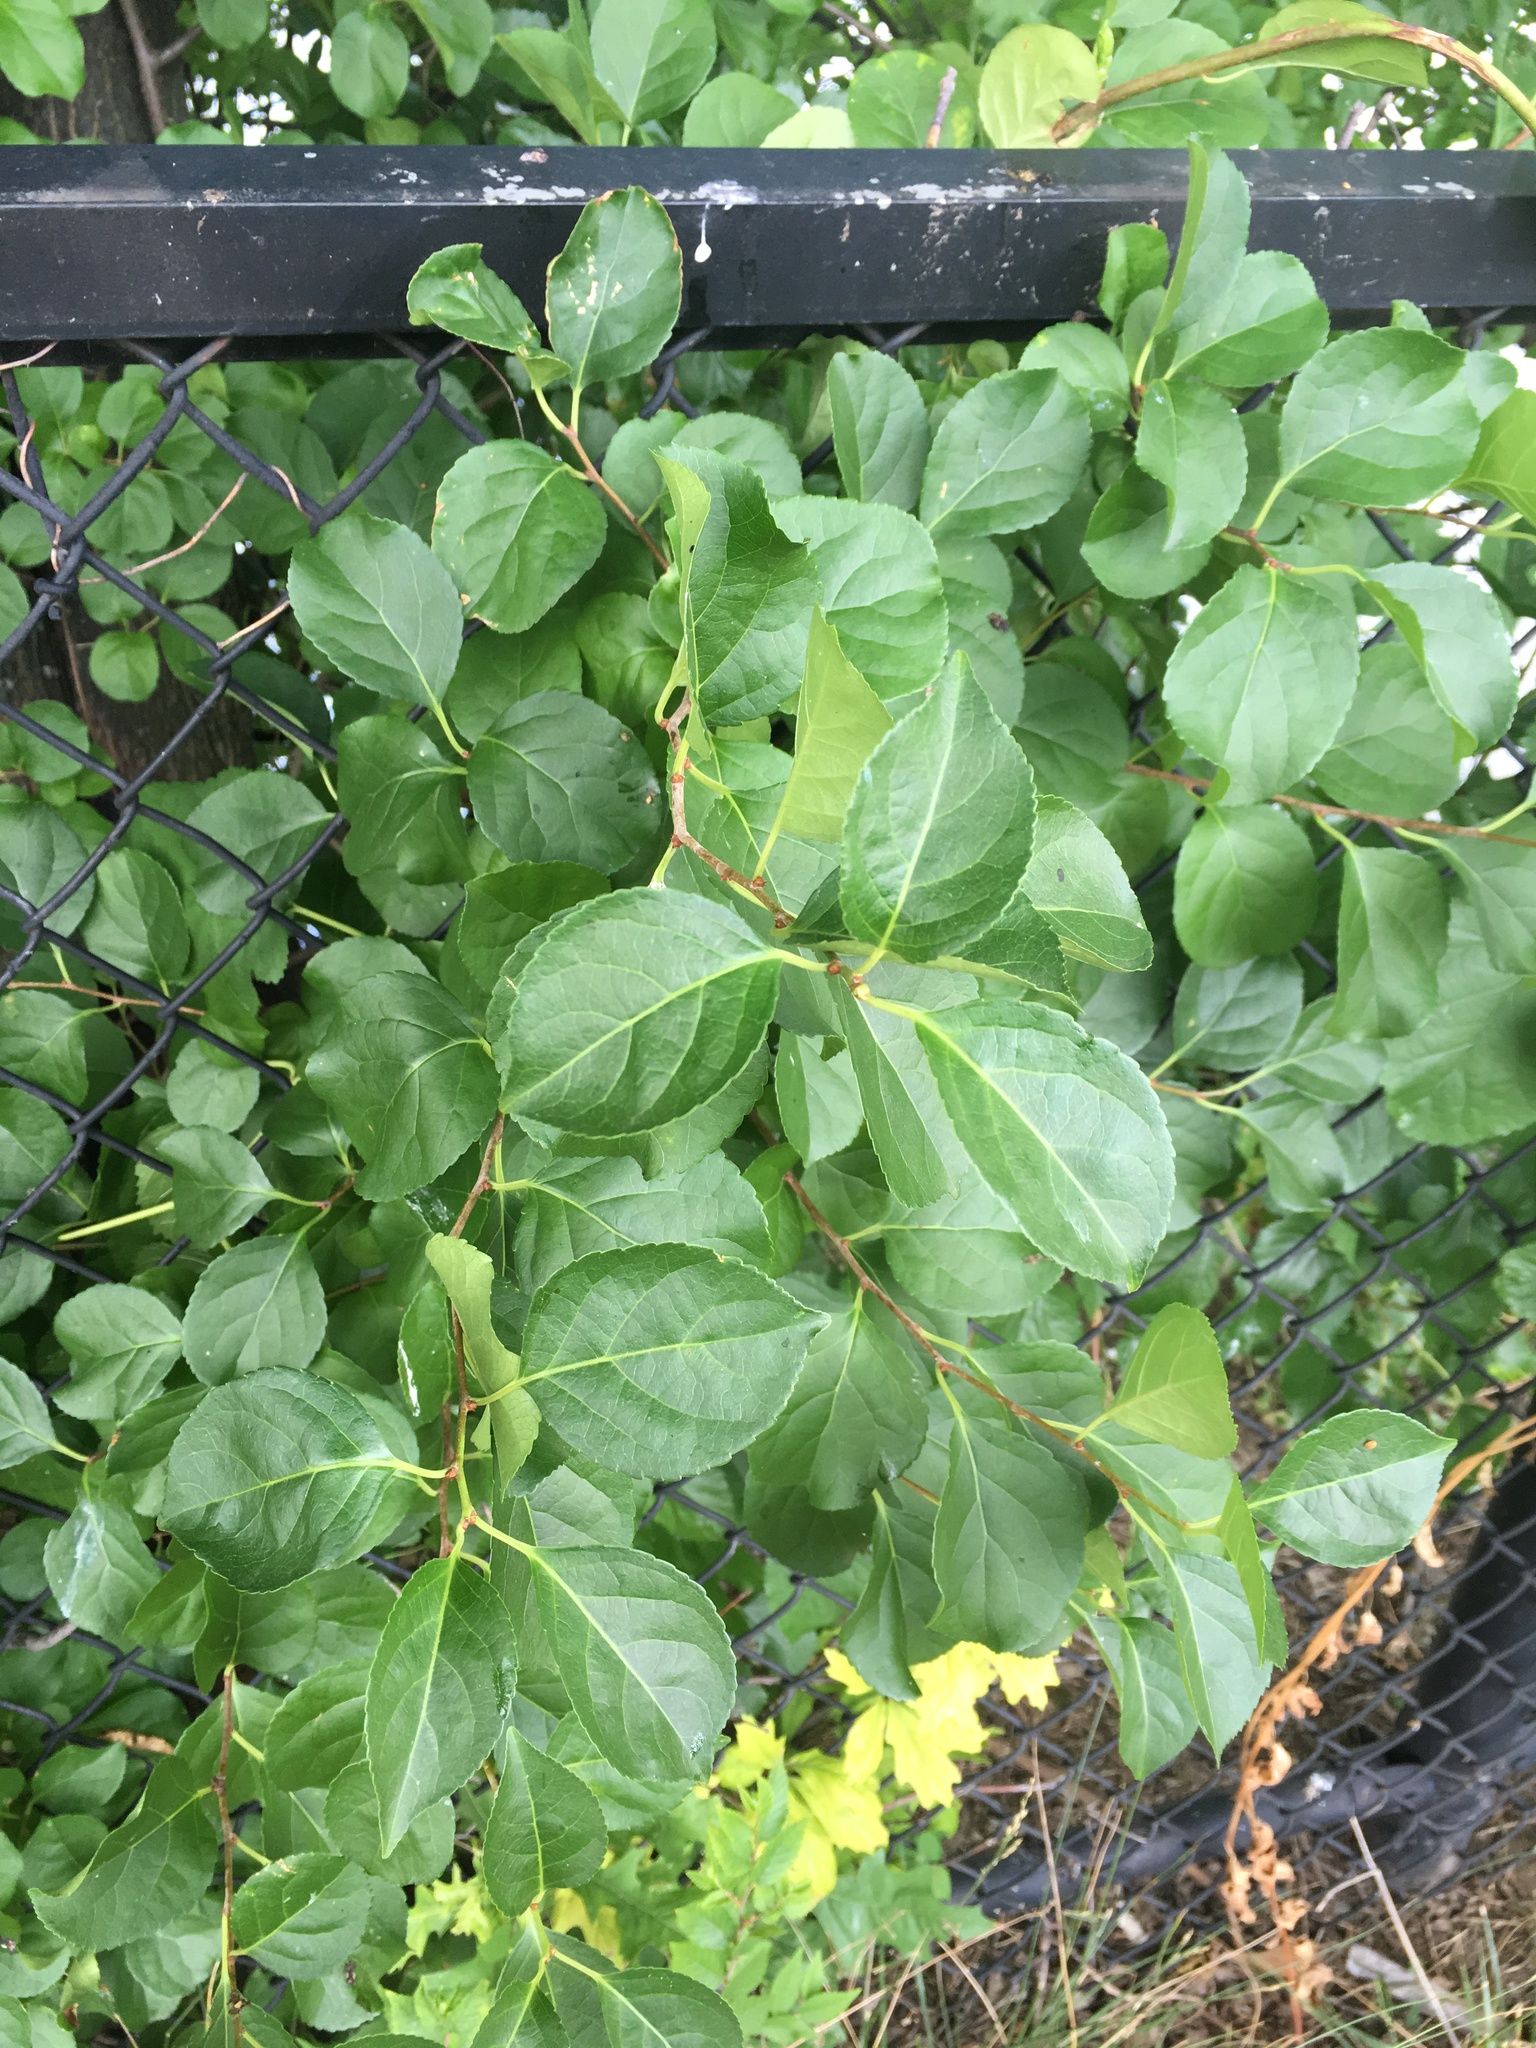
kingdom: Plantae
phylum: Tracheophyta
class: Magnoliopsida
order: Celastrales
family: Celastraceae
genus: Celastrus
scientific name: Celastrus orbiculatus
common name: Oriental bittersweet
